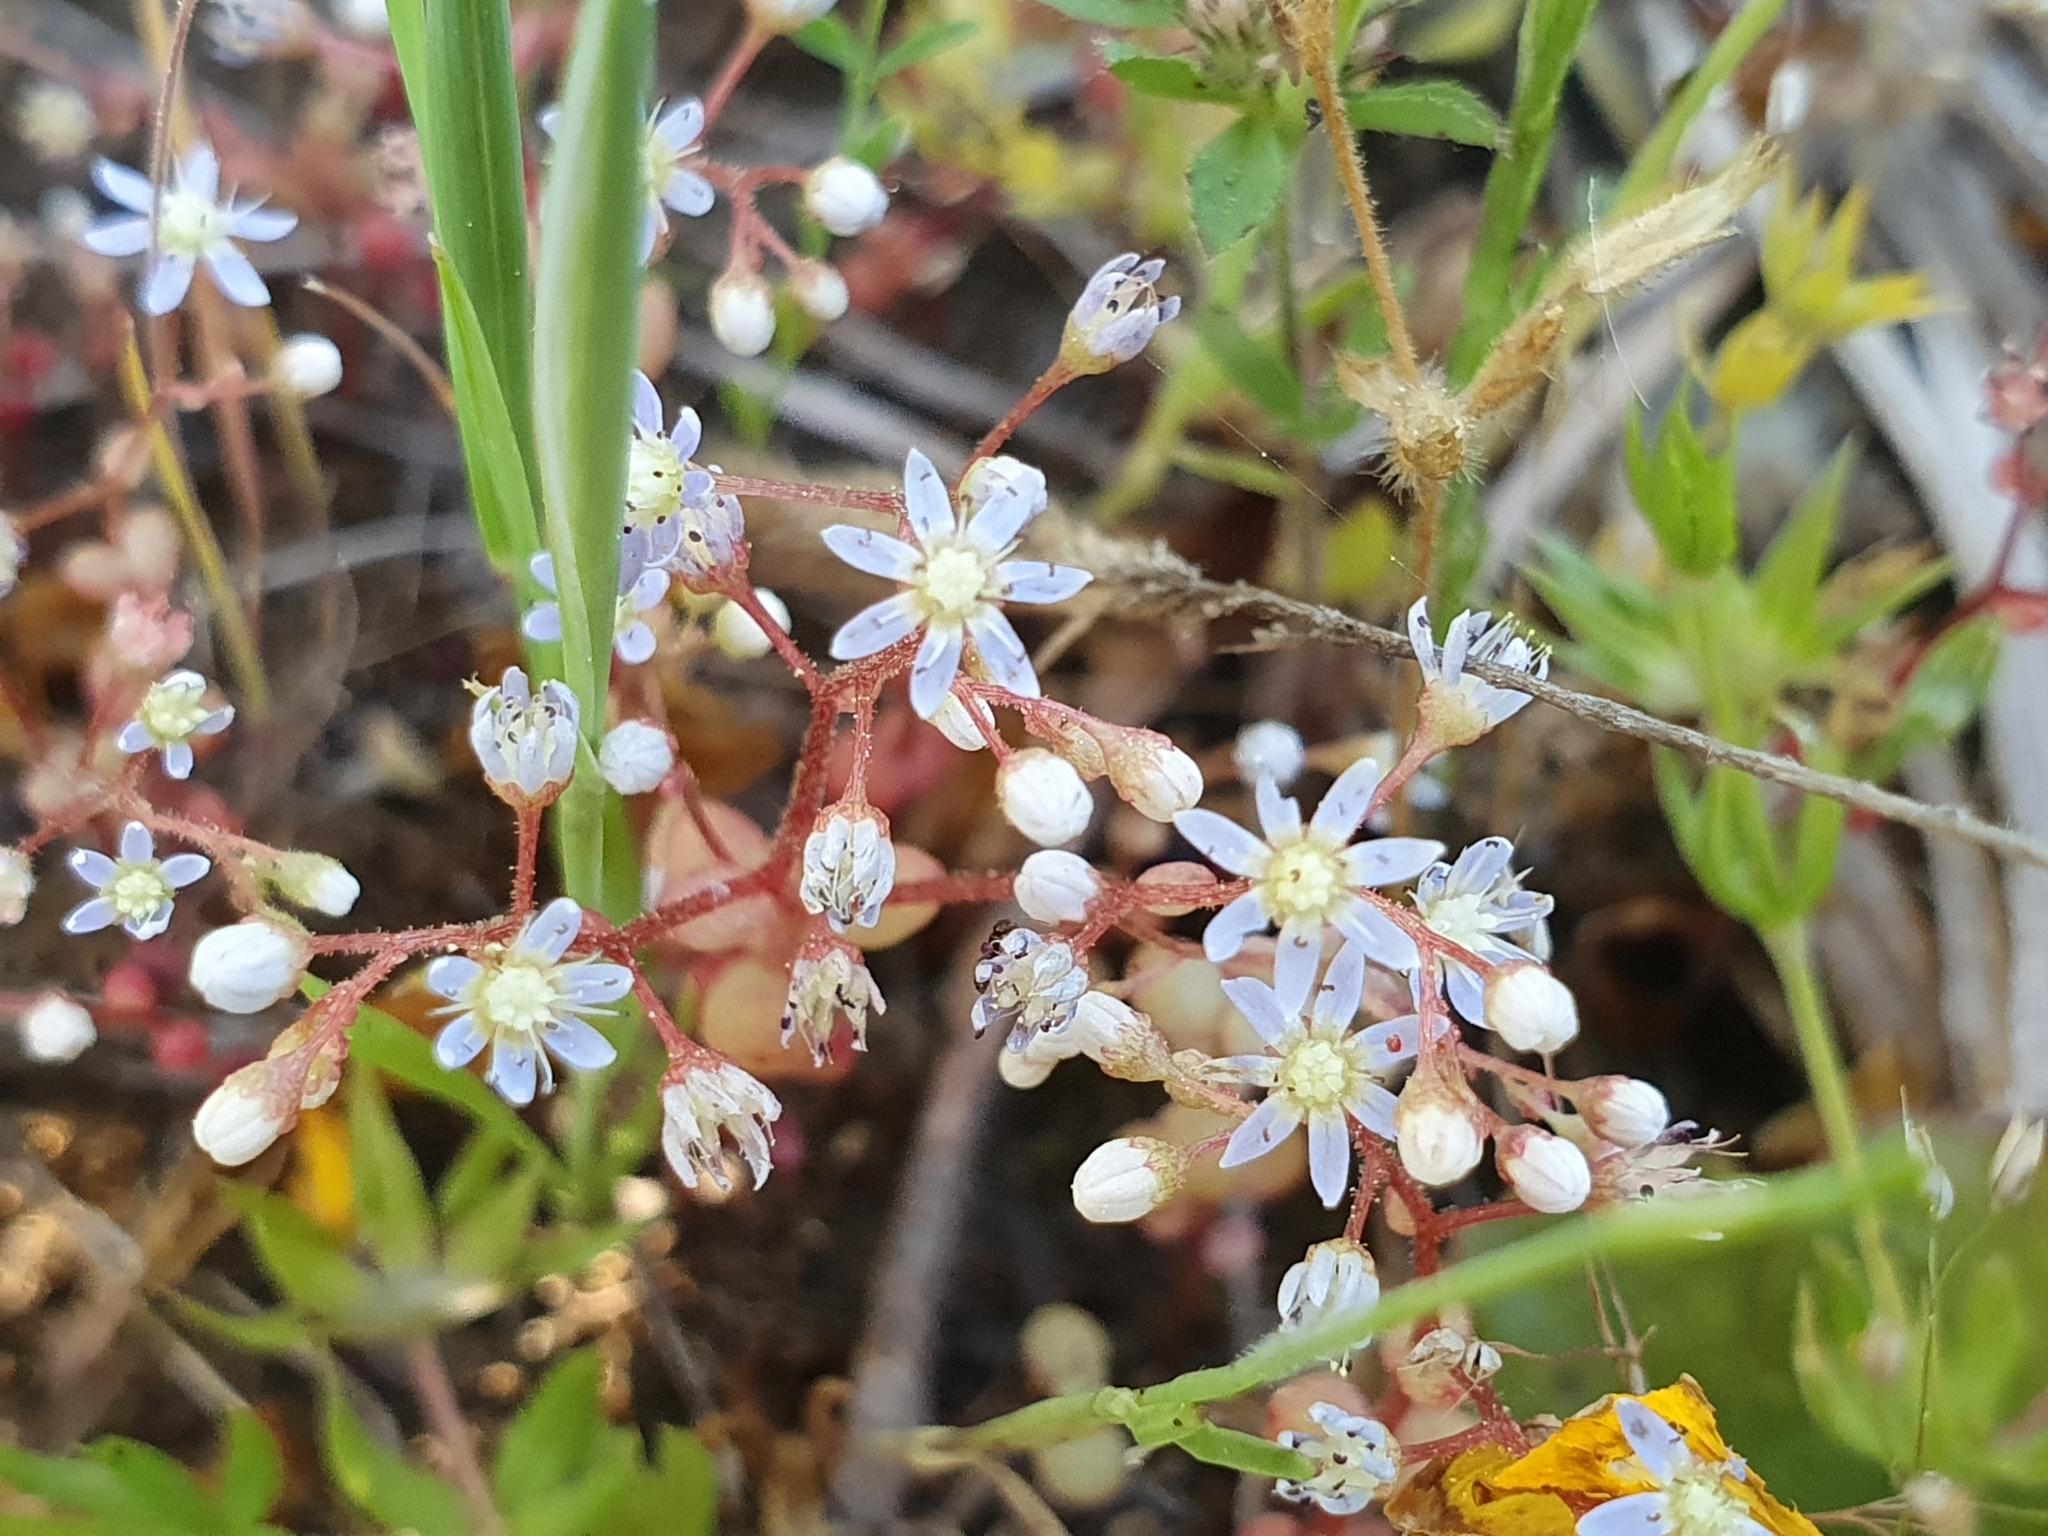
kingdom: Plantae
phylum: Tracheophyta
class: Magnoliopsida
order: Saxifragales
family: Crassulaceae
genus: Sedum
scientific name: Sedum caeruleum
